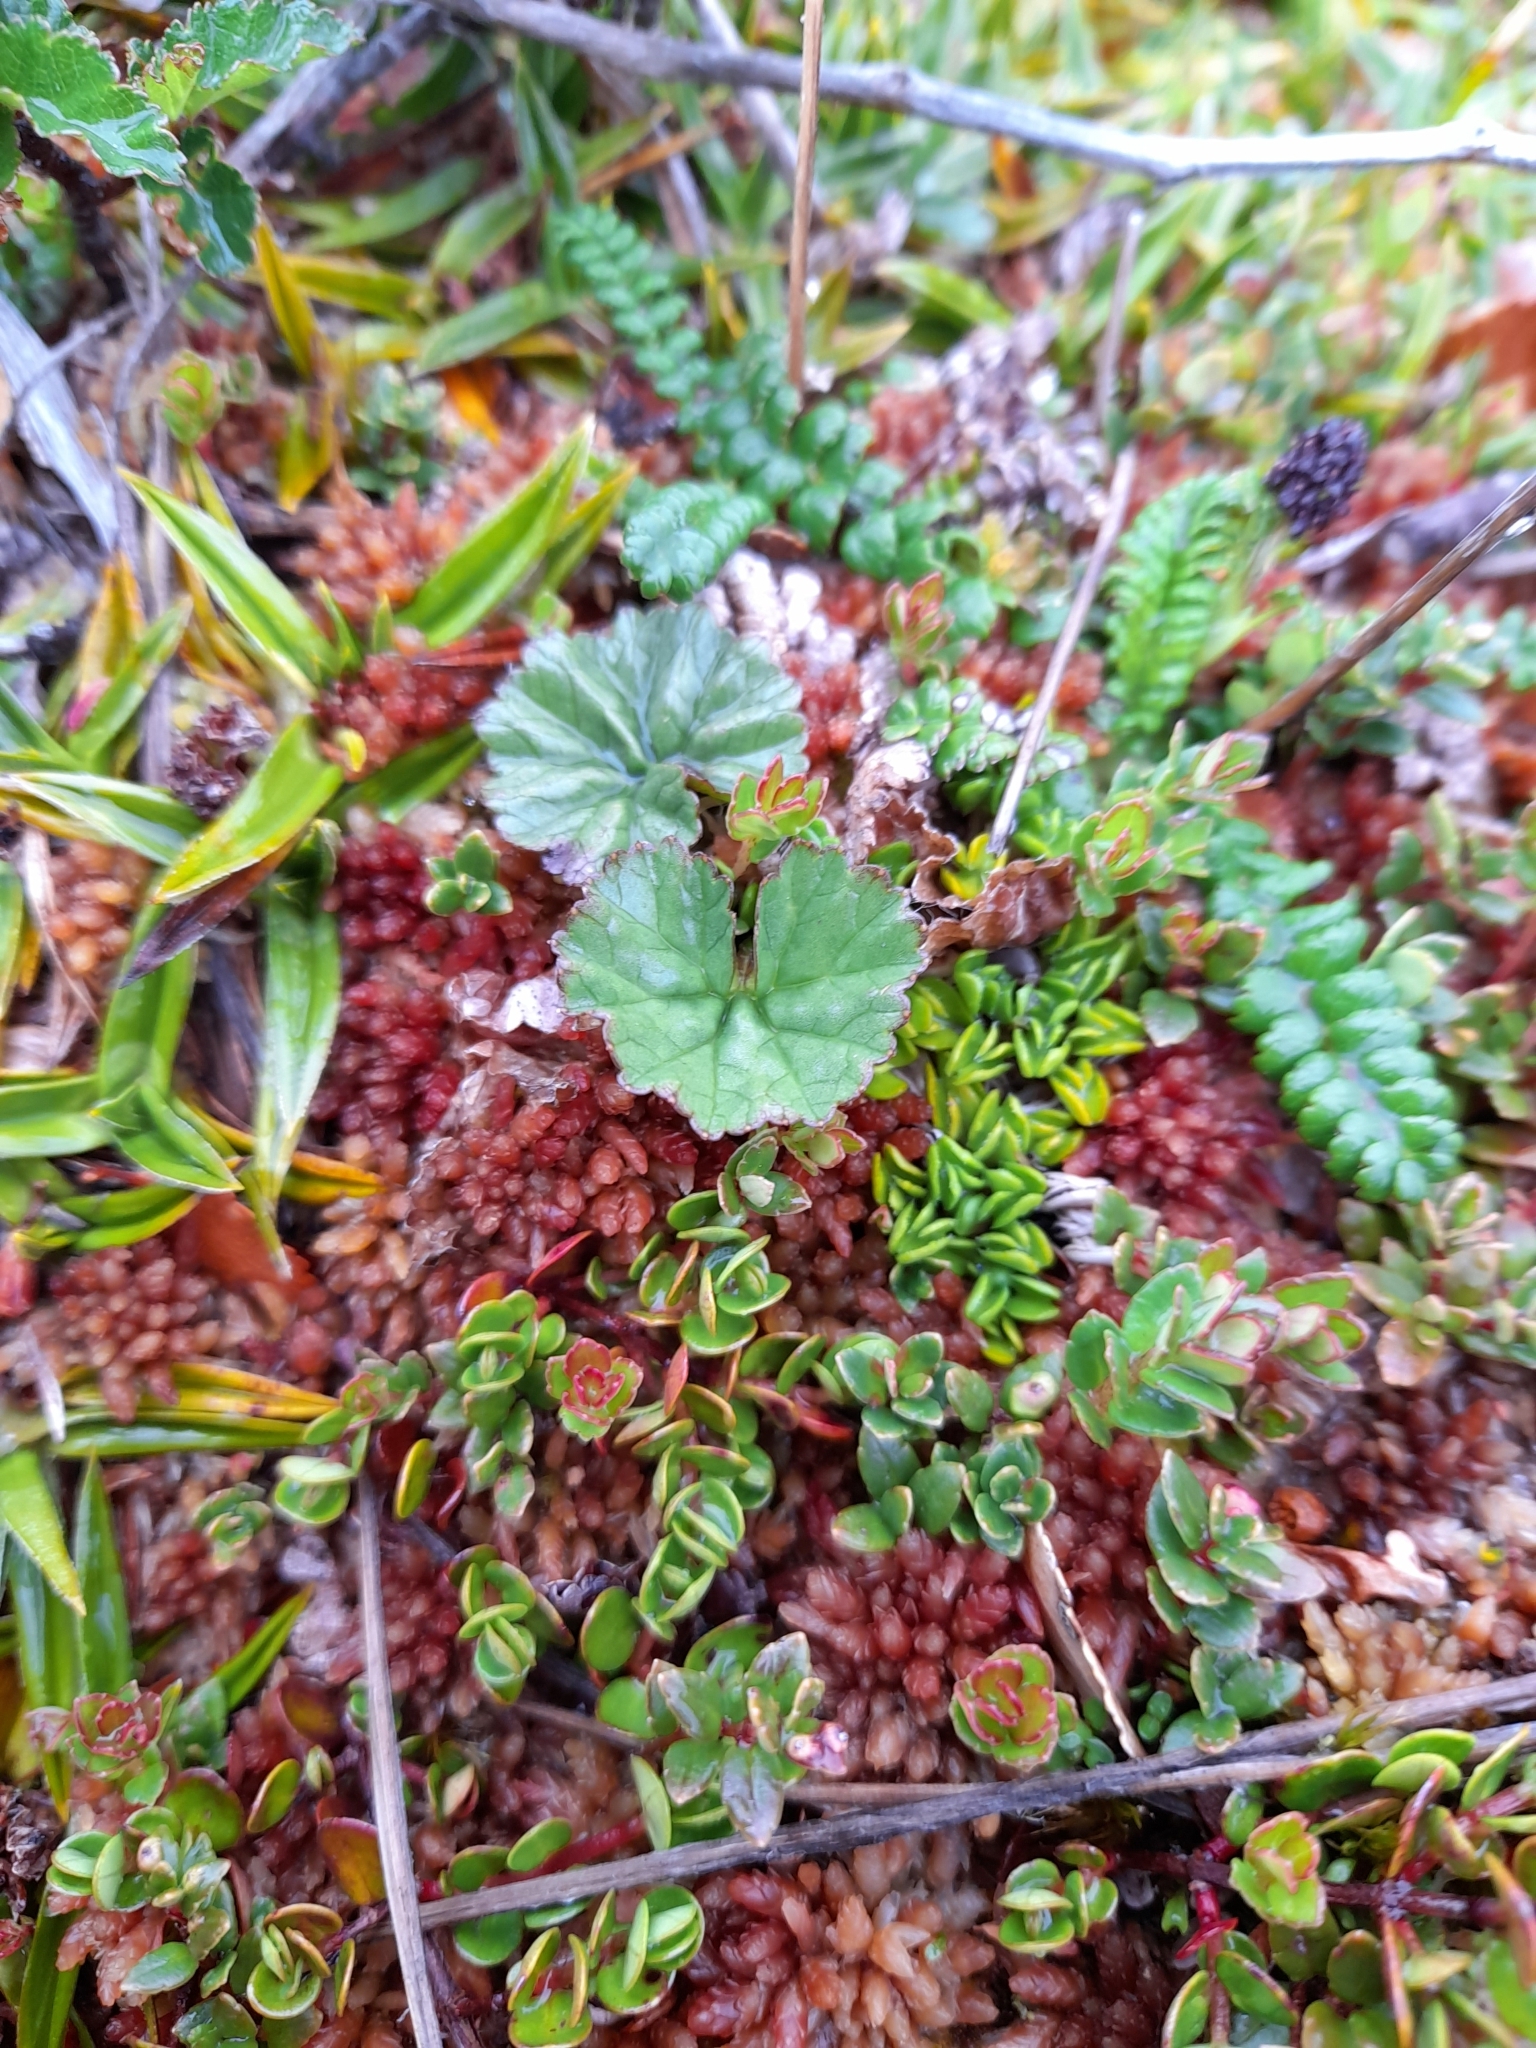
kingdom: Plantae
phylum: Tracheophyta
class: Magnoliopsida
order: Gunnerales
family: Gunneraceae
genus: Gunnera
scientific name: Gunnera magellanica
